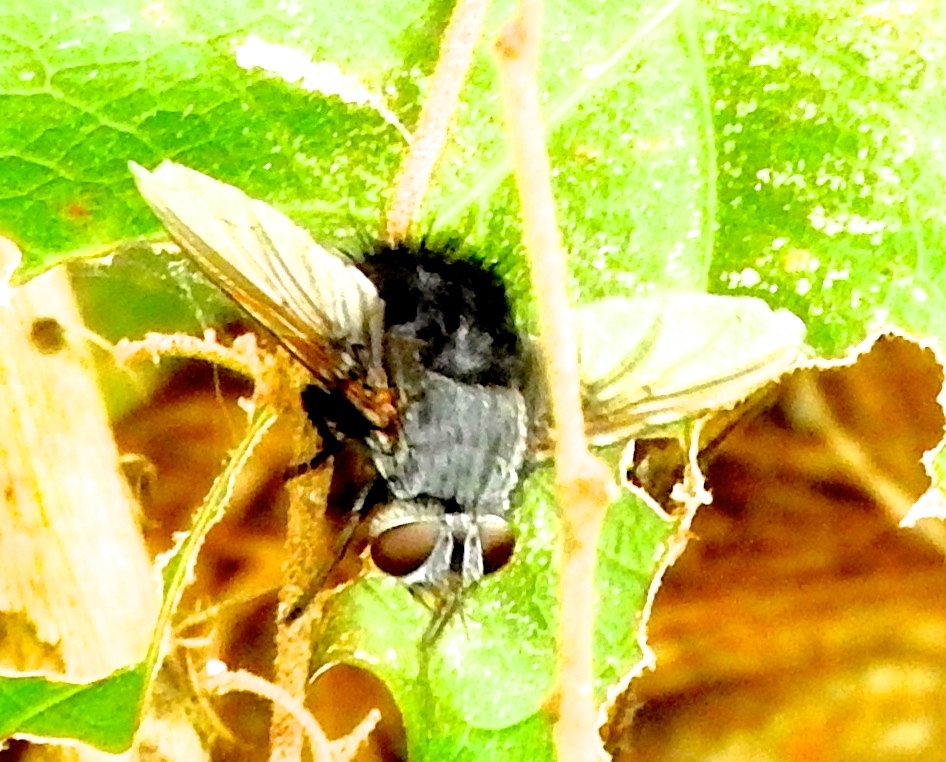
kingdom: Animalia
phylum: Arthropoda
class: Insecta
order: Diptera
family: Tachinidae
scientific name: Tachinidae
